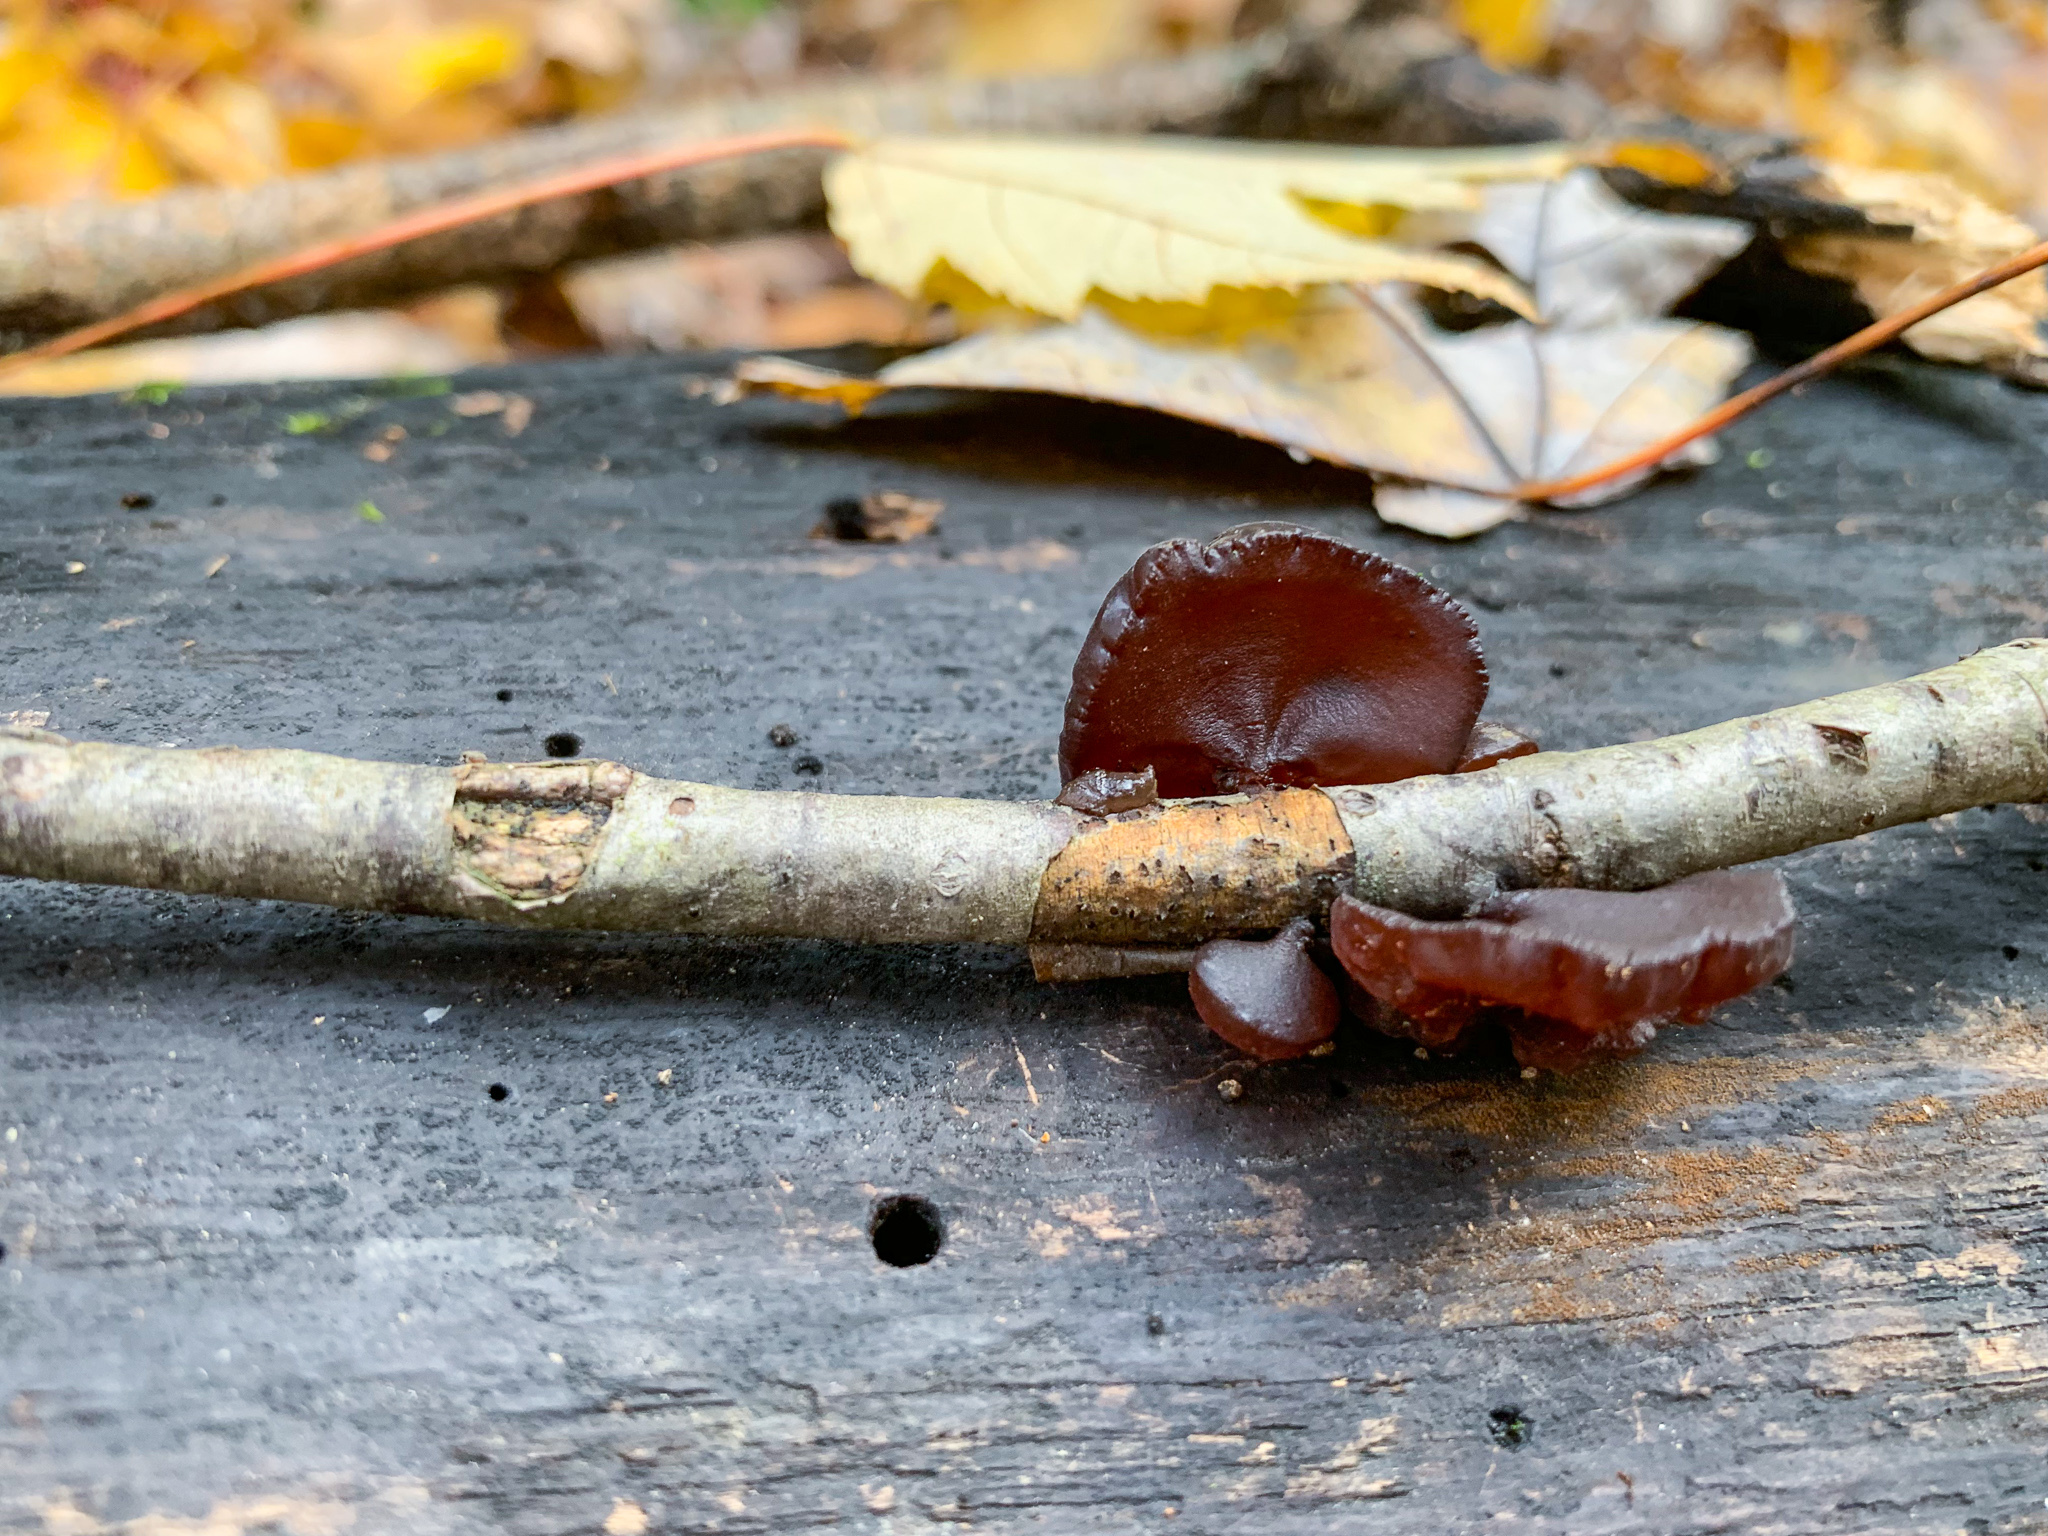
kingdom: Fungi
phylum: Basidiomycota
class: Agaricomycetes
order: Auriculariales
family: Auriculariaceae
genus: Exidia
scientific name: Exidia
